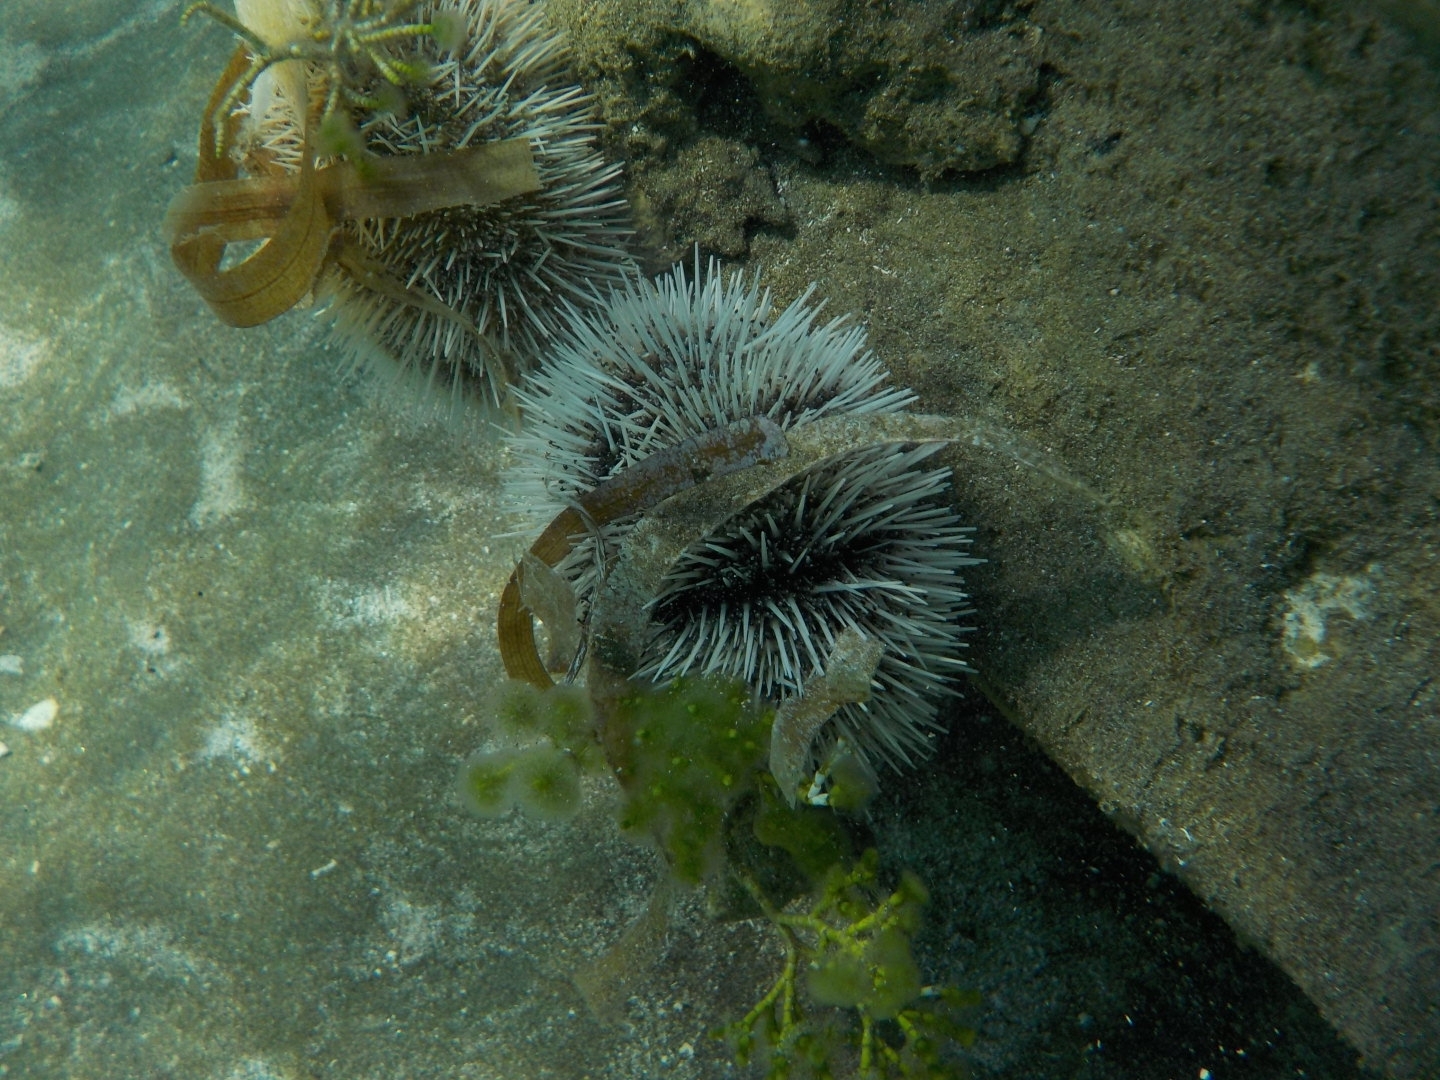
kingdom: Animalia
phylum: Echinodermata
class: Echinoidea
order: Camarodonta
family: Toxopneustidae
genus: Tripneustes
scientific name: Tripneustes ventricosus
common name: West indian sea egg
